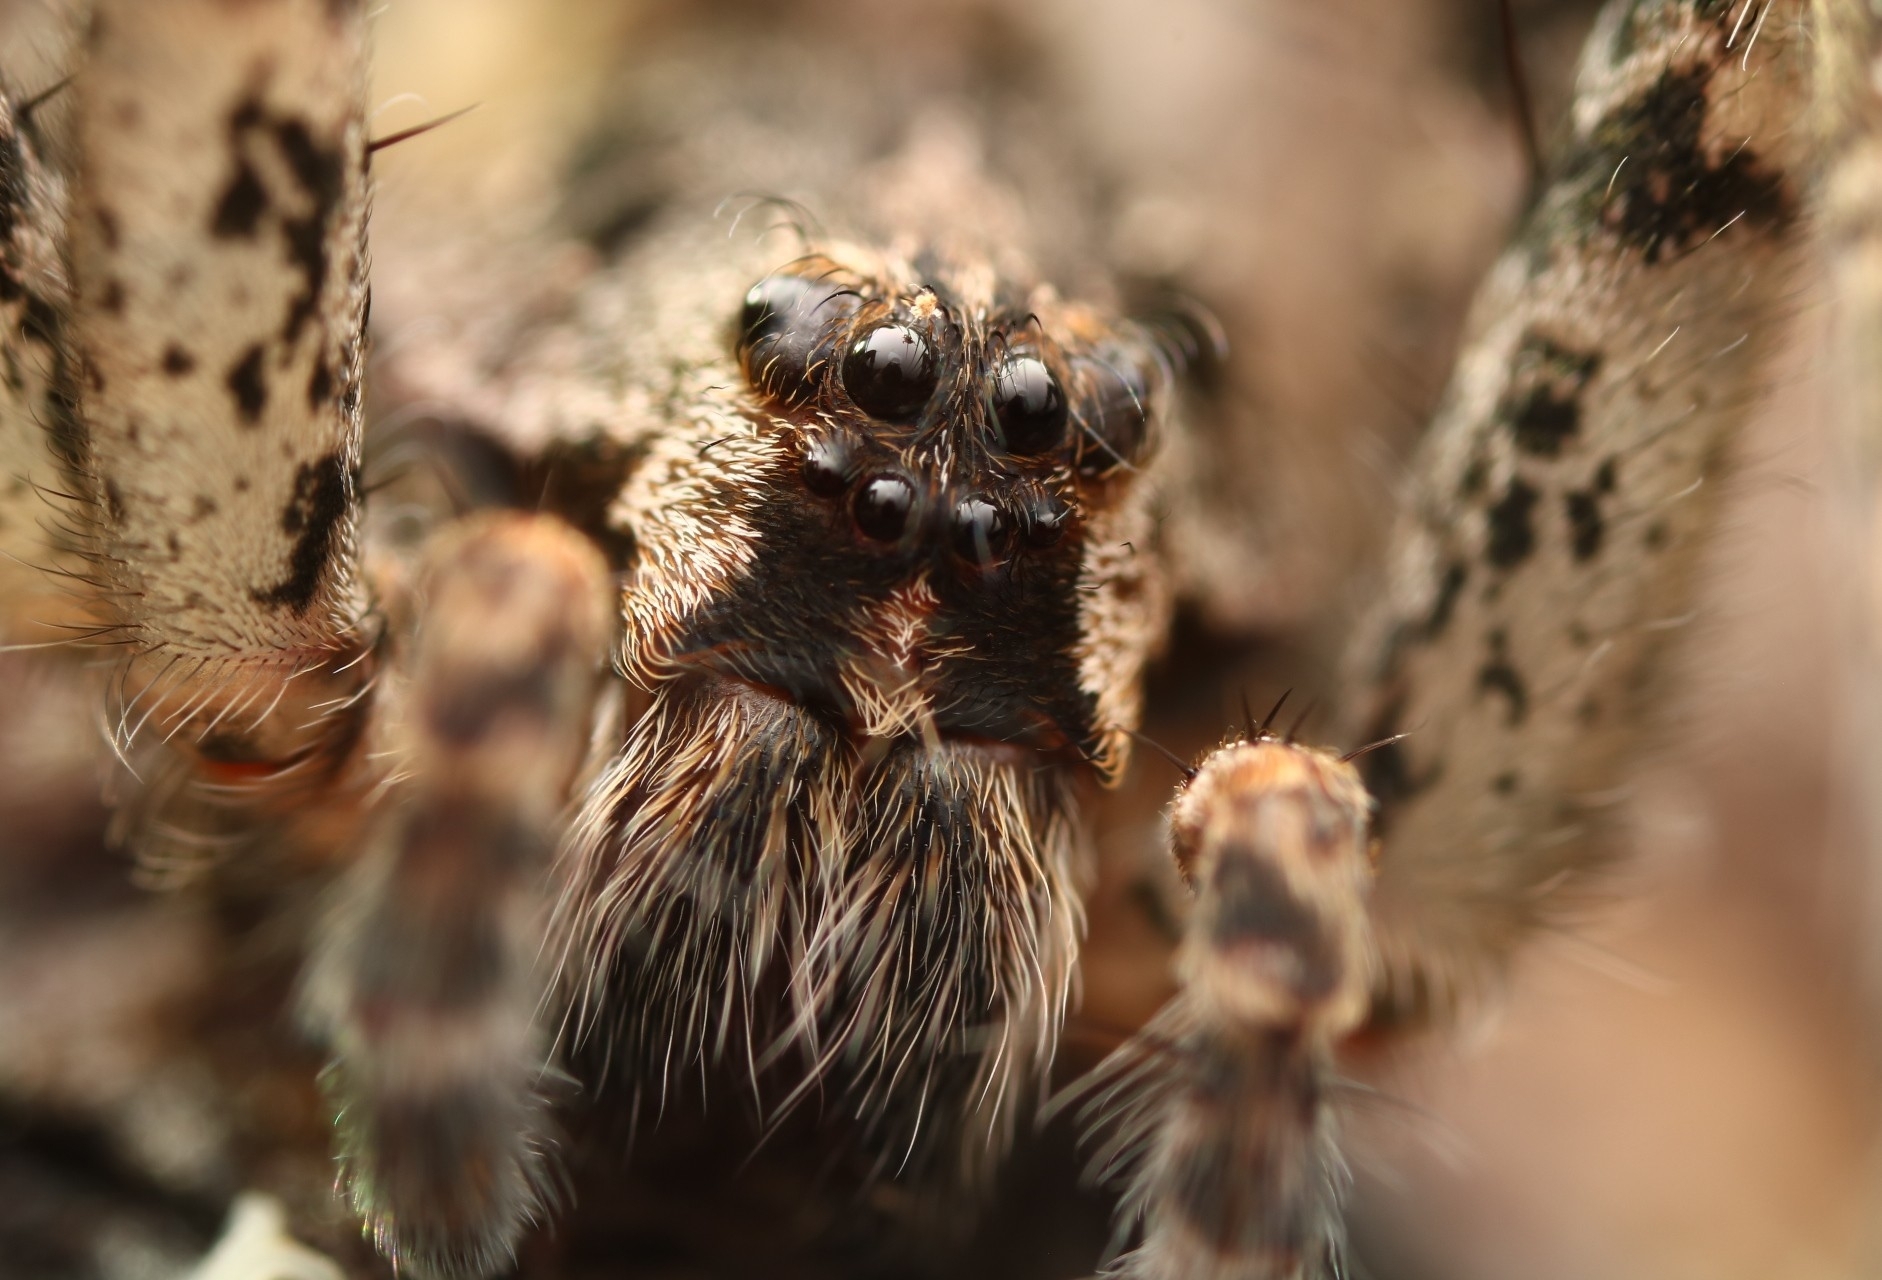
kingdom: Animalia
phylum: Arthropoda
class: Arachnida
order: Araneae
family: Pisauridae
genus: Dolomedes
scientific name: Dolomedes tenebrosus
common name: Dark fishing spider
